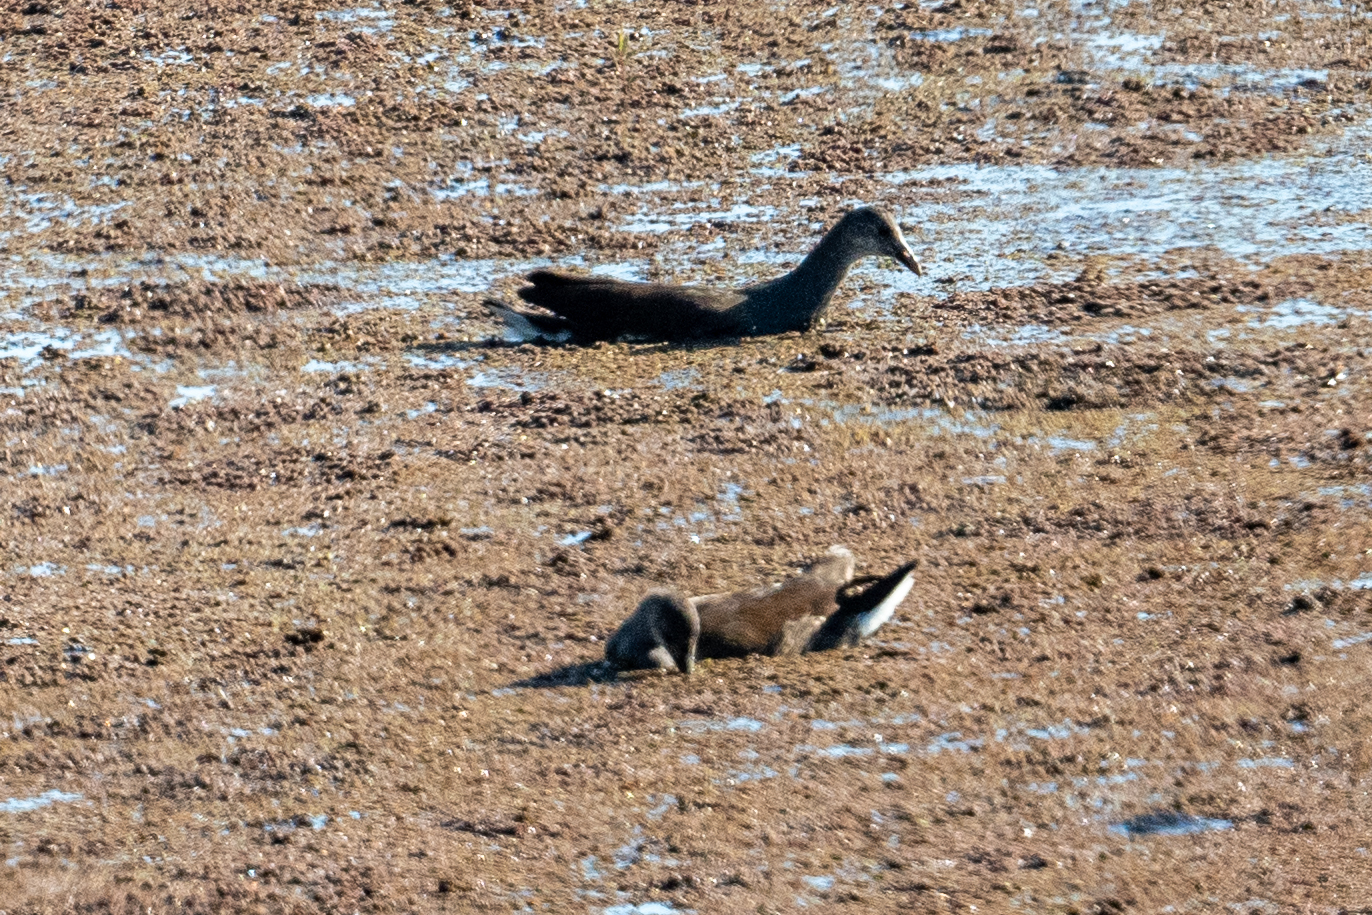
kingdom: Animalia
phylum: Chordata
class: Aves
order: Gruiformes
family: Rallidae
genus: Gallinula
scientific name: Gallinula chloropus
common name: Common moorhen
